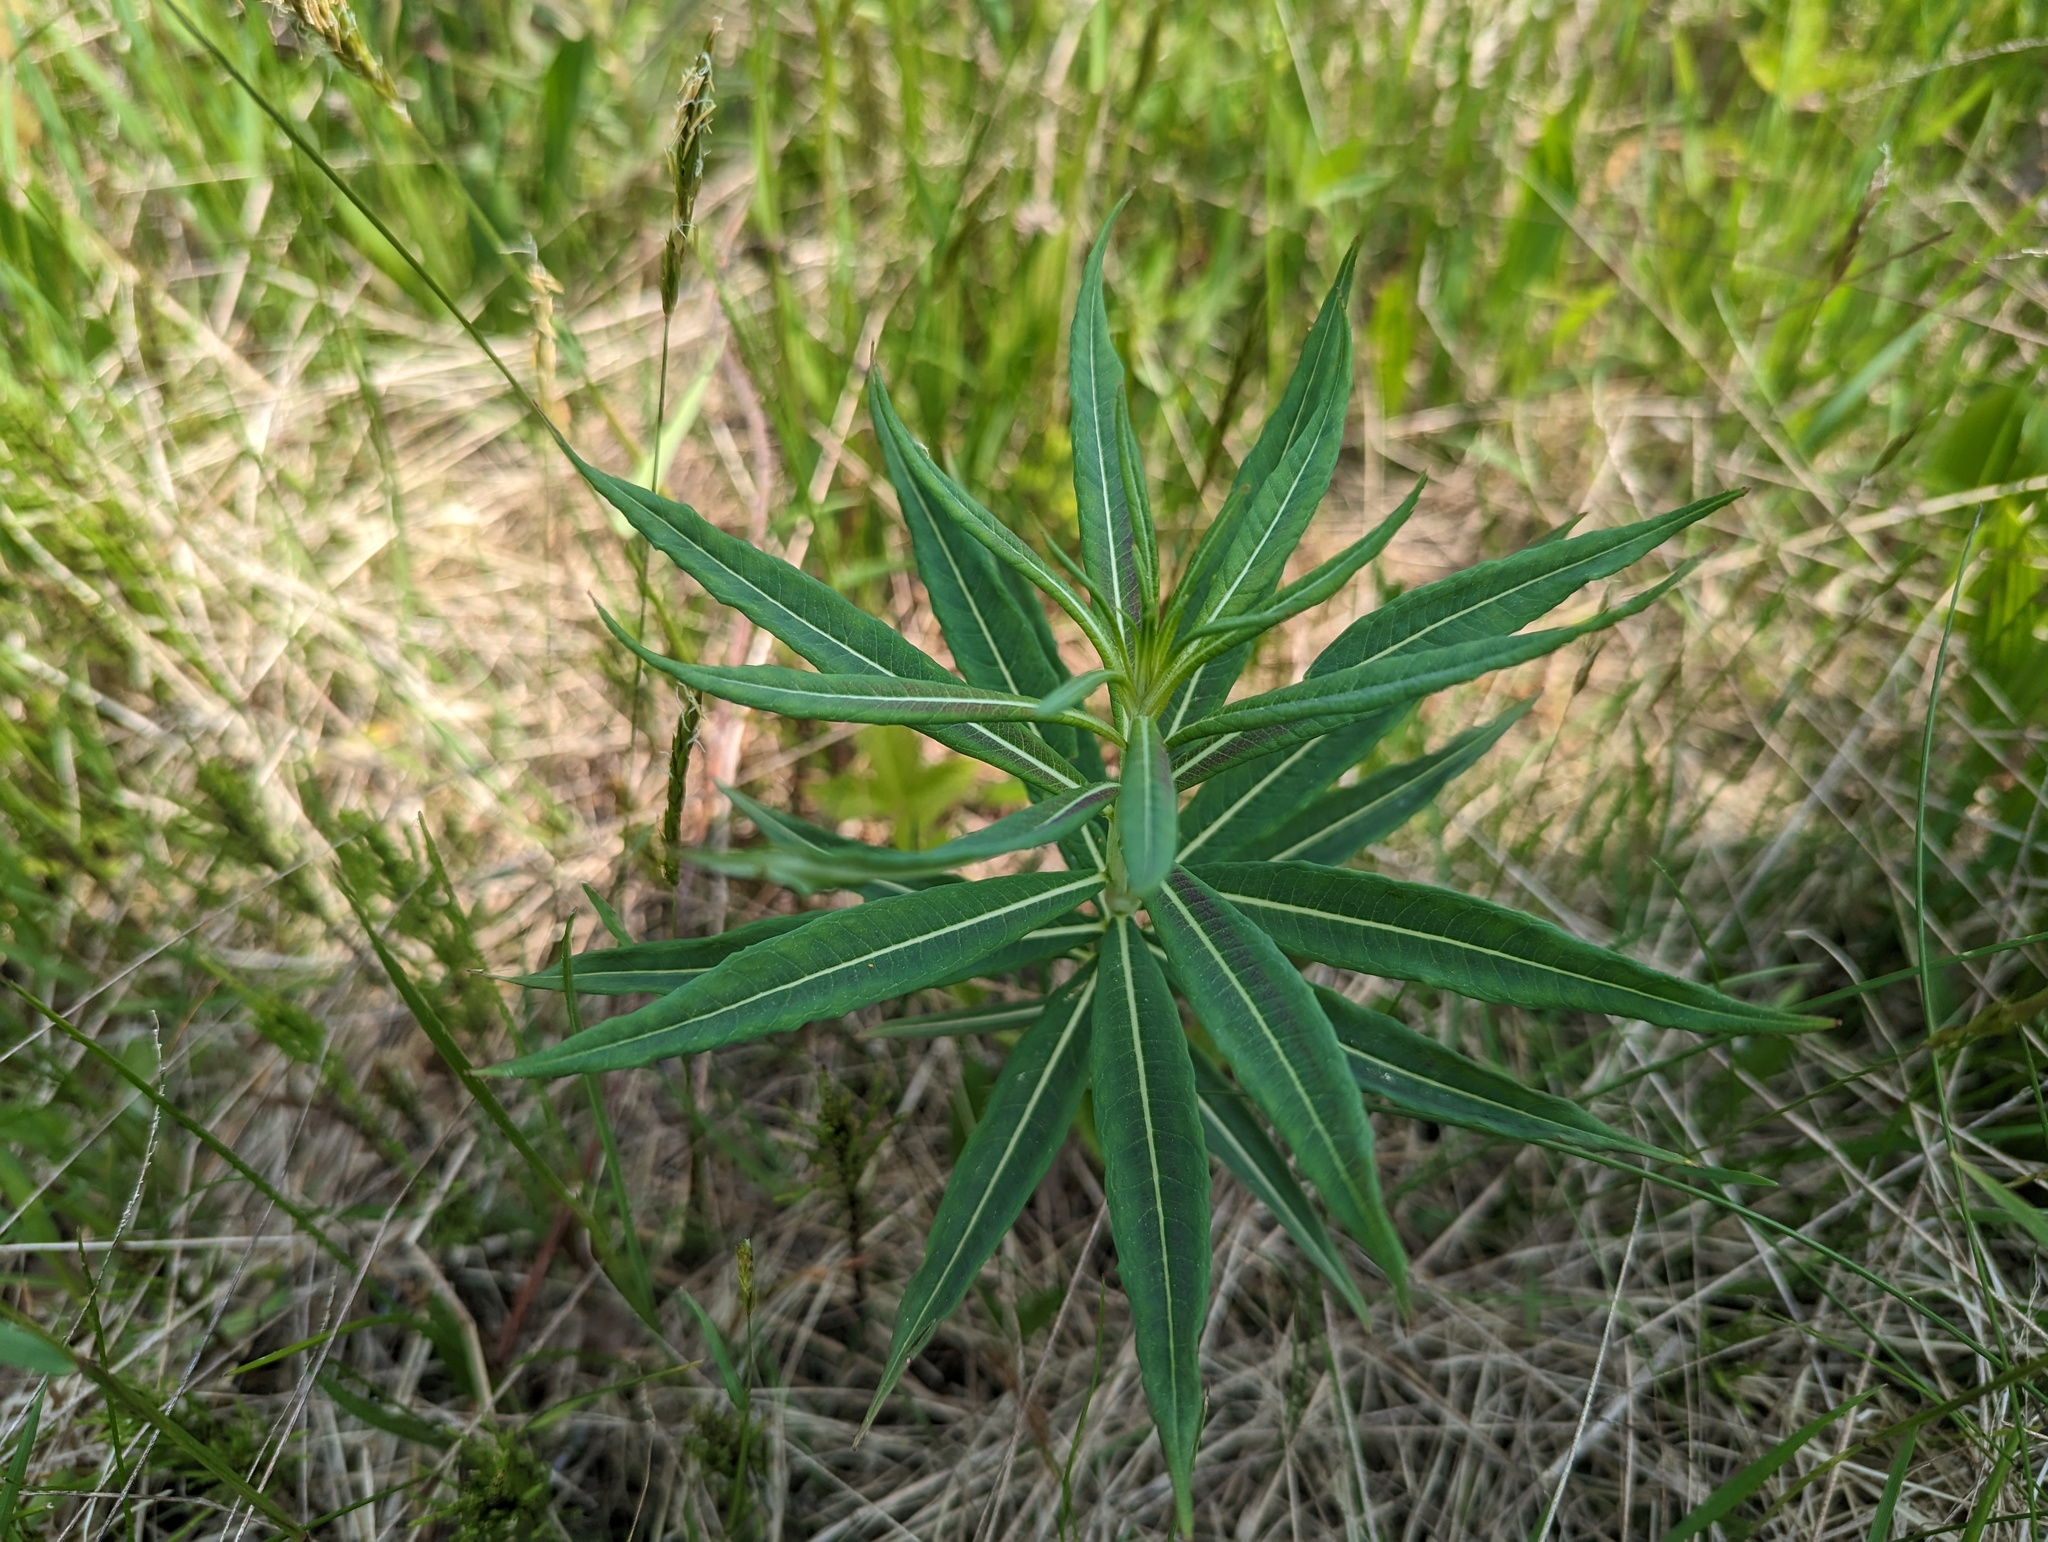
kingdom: Plantae
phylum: Tracheophyta
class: Magnoliopsida
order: Myrtales
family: Onagraceae
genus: Chamaenerion
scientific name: Chamaenerion angustifolium
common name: Fireweed
